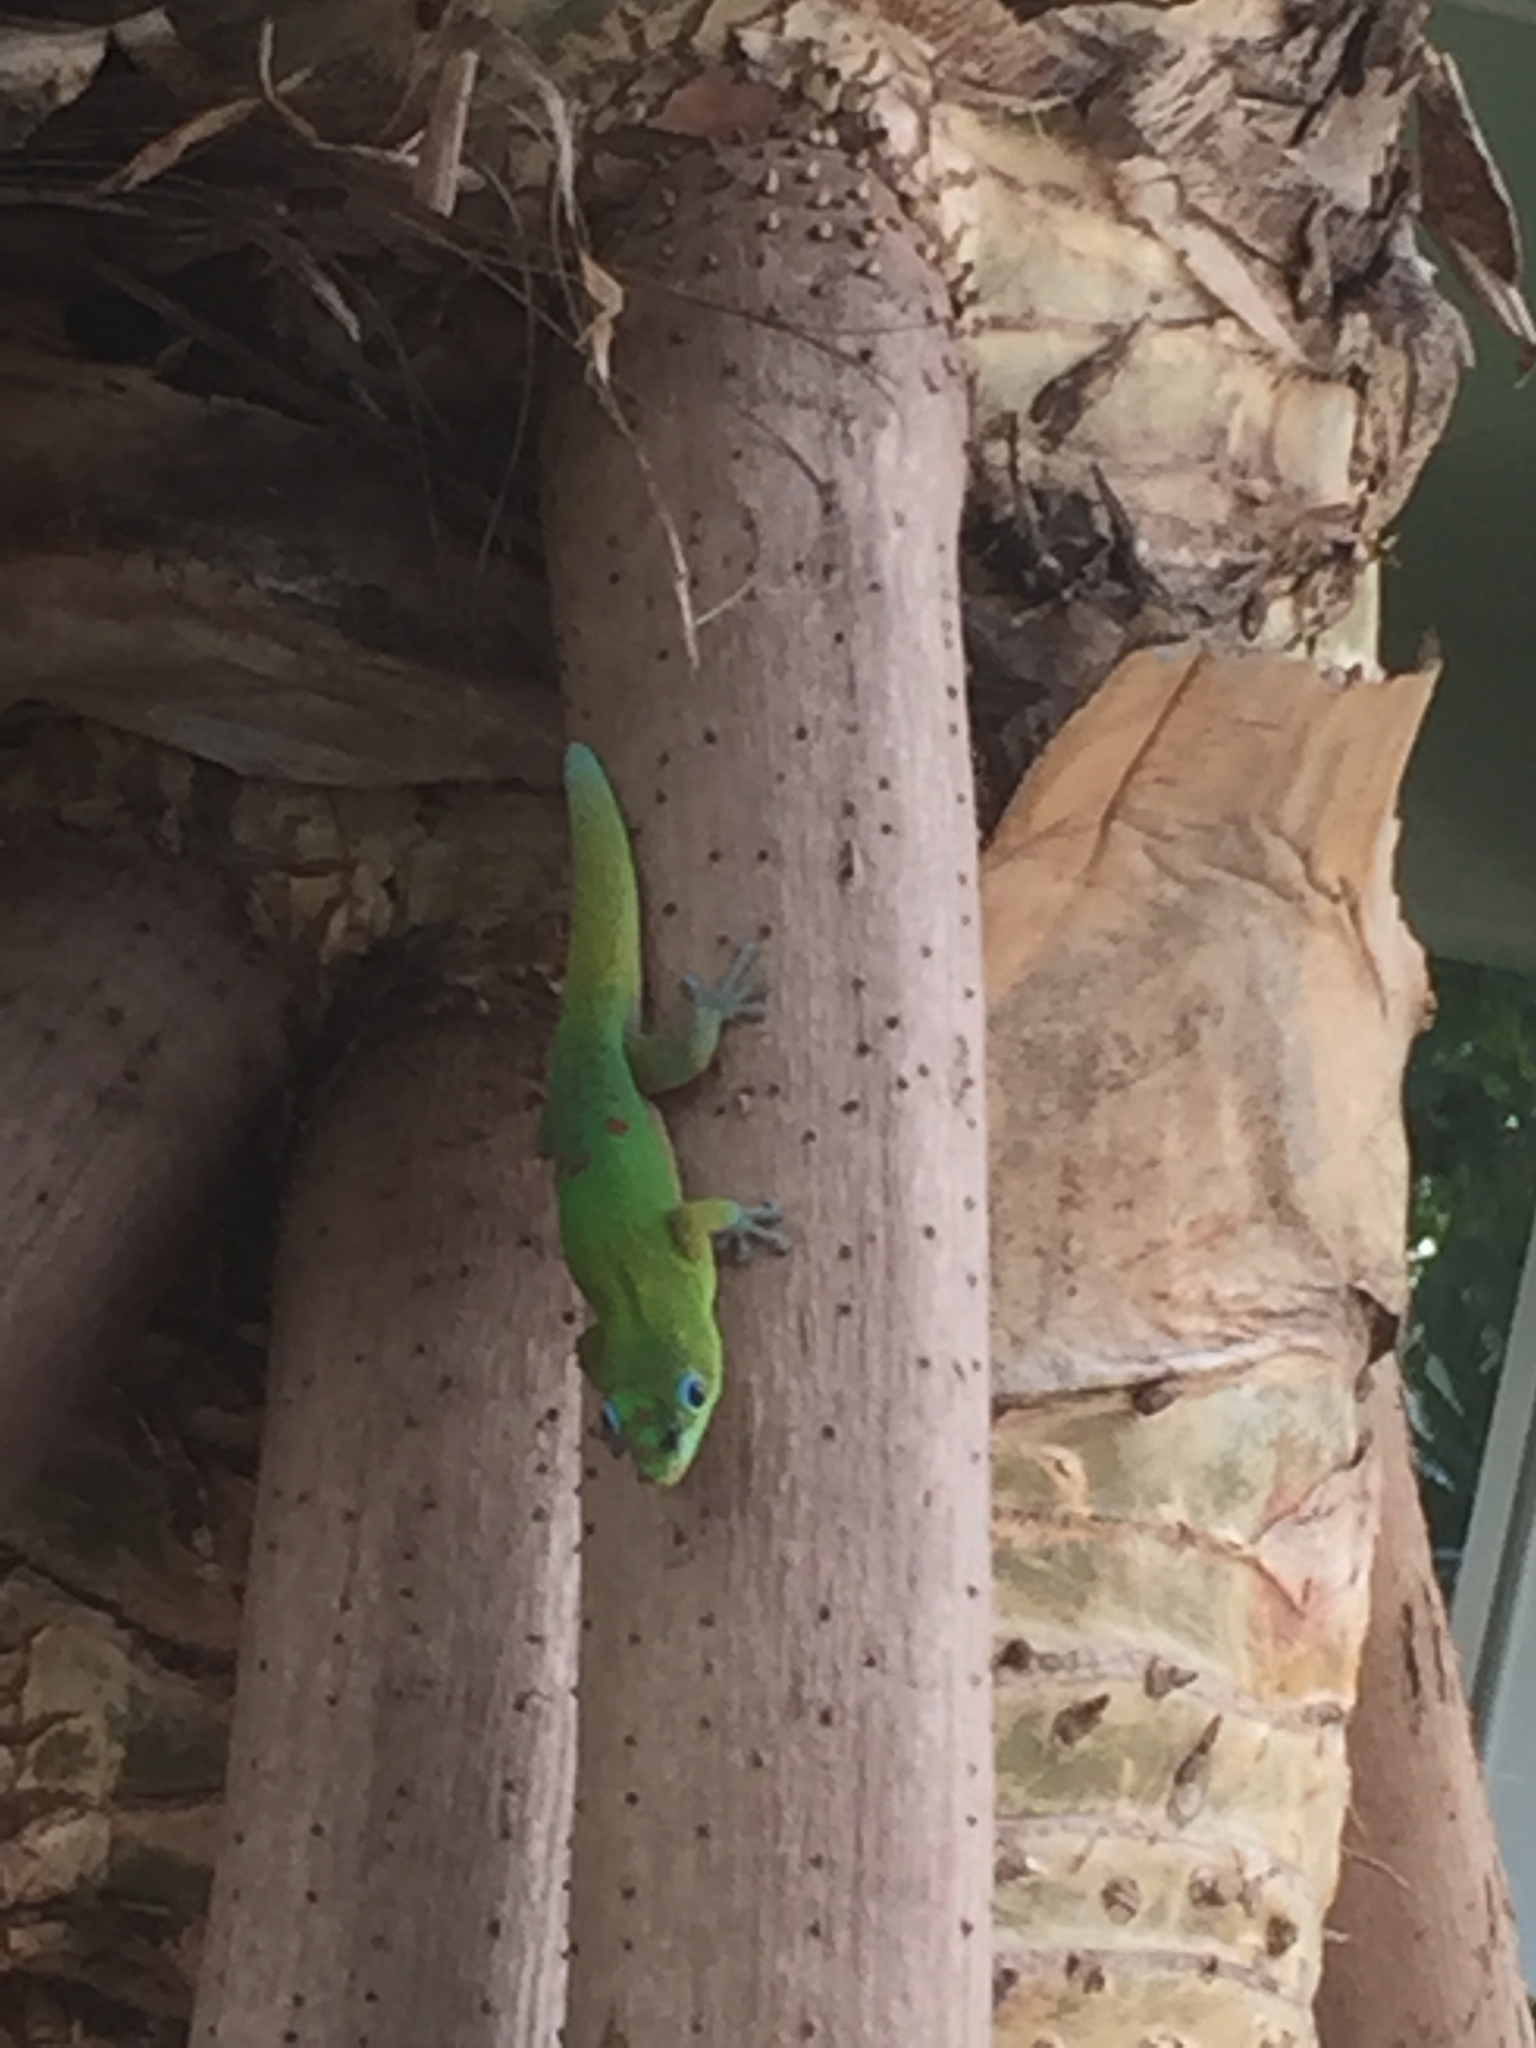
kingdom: Animalia
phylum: Chordata
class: Squamata
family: Gekkonidae
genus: Phelsuma
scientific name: Phelsuma laticauda
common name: Gold dust day gecko
